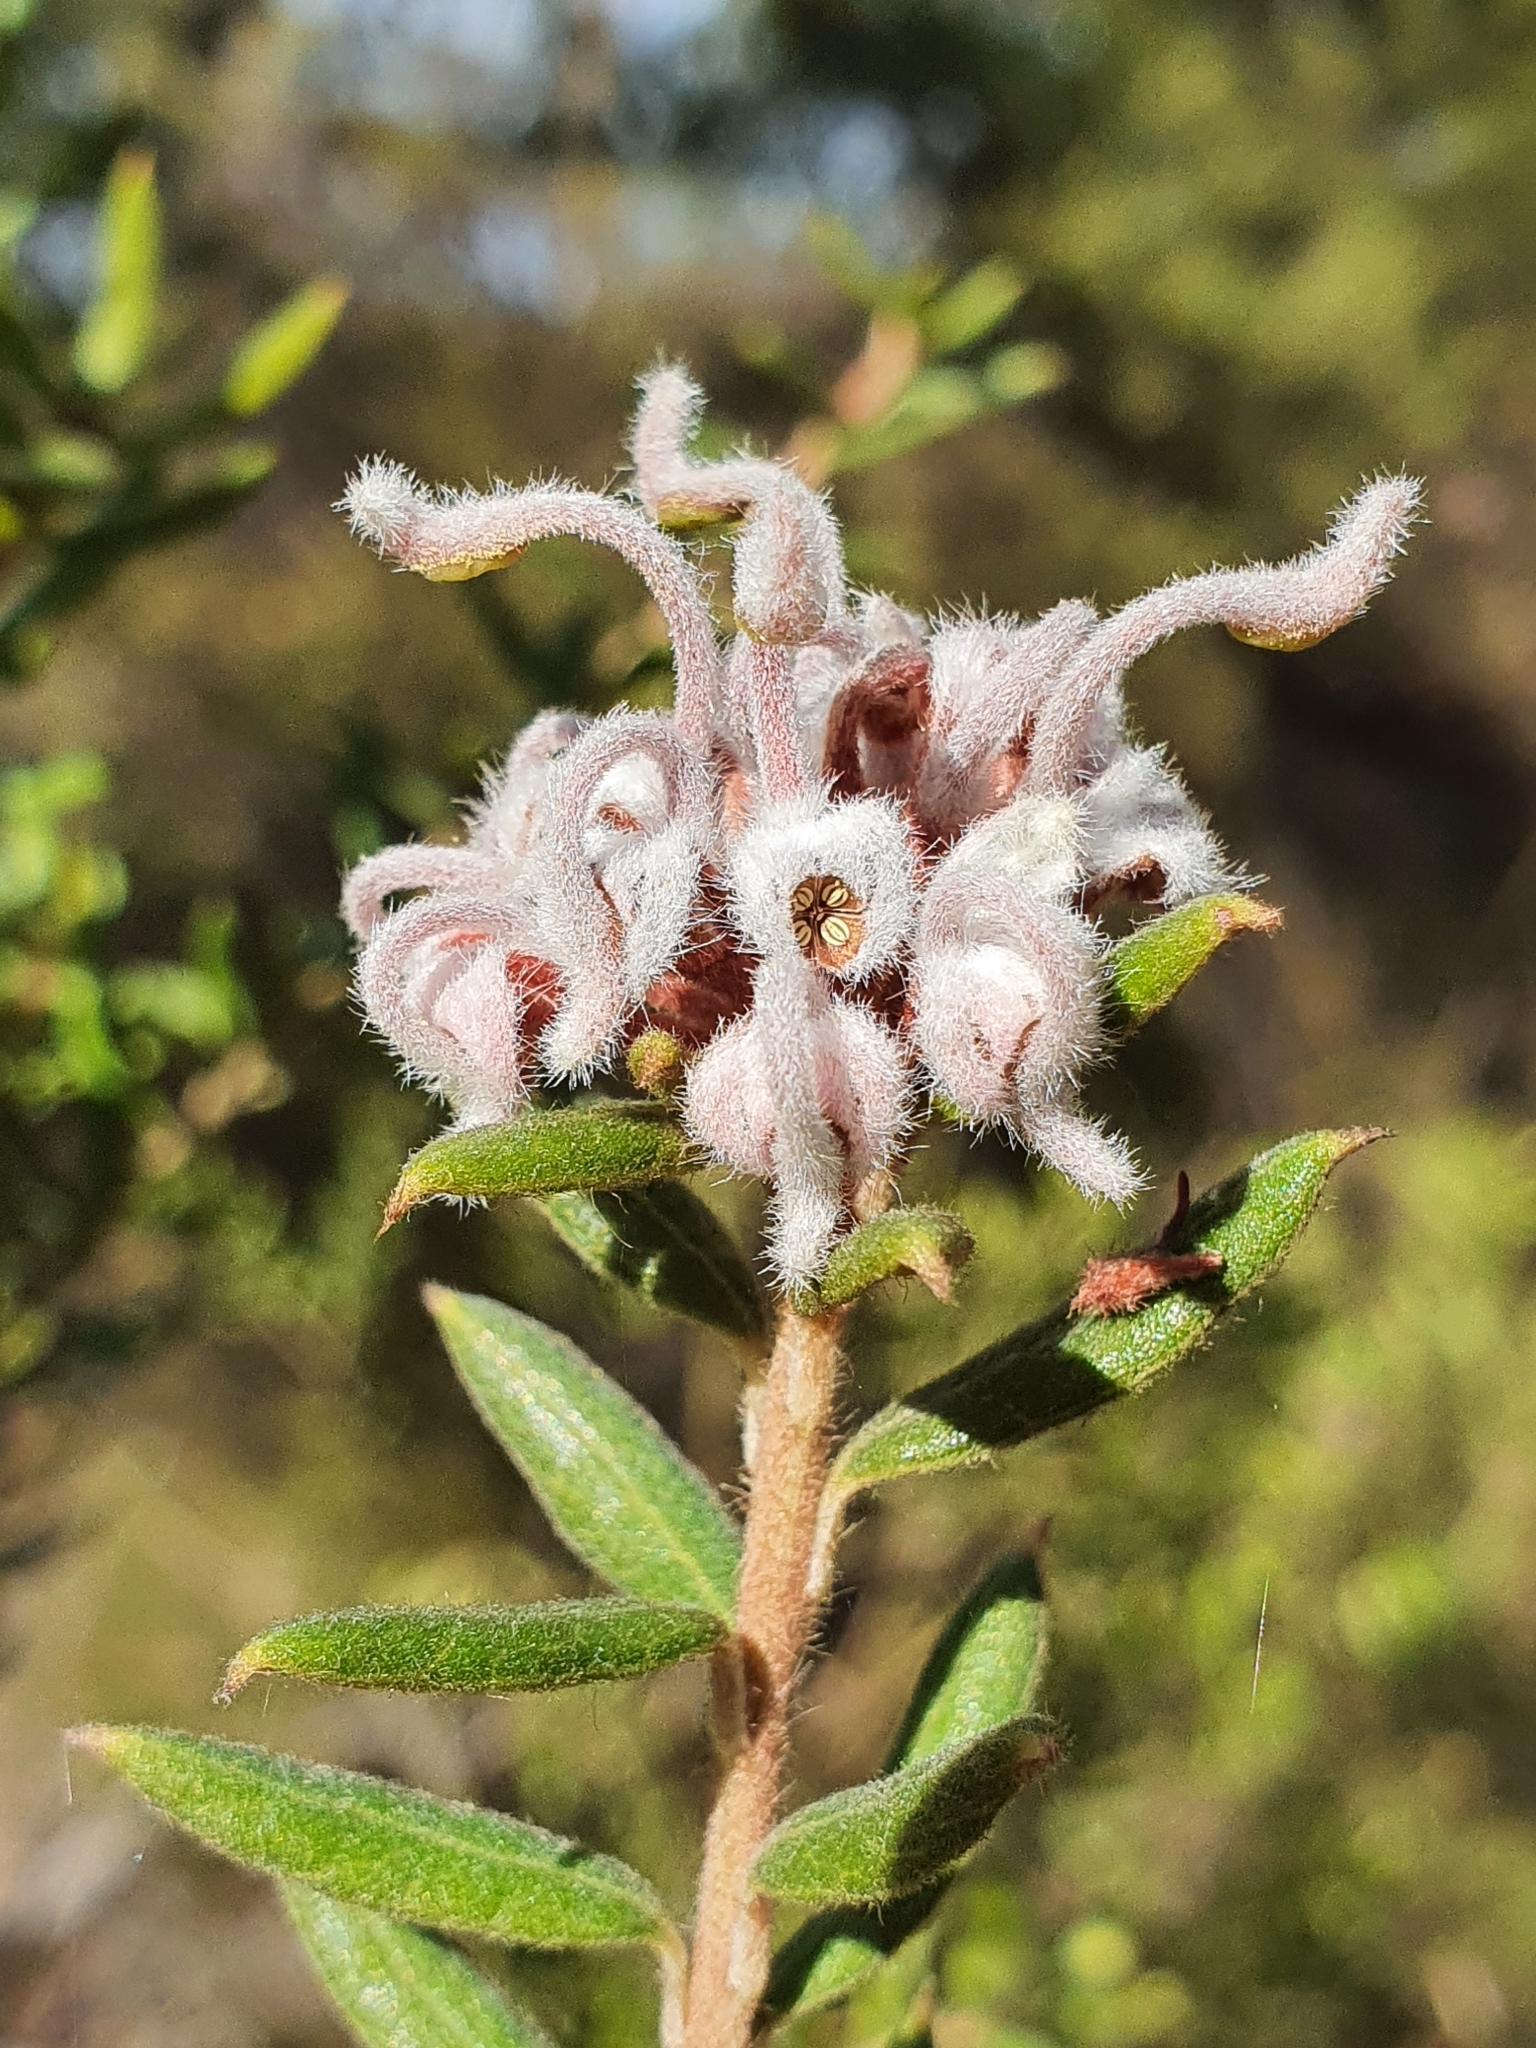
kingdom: Plantae
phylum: Tracheophyta
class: Magnoliopsida
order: Proteales
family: Proteaceae
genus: Grevillea
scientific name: Grevillea phylicoides
